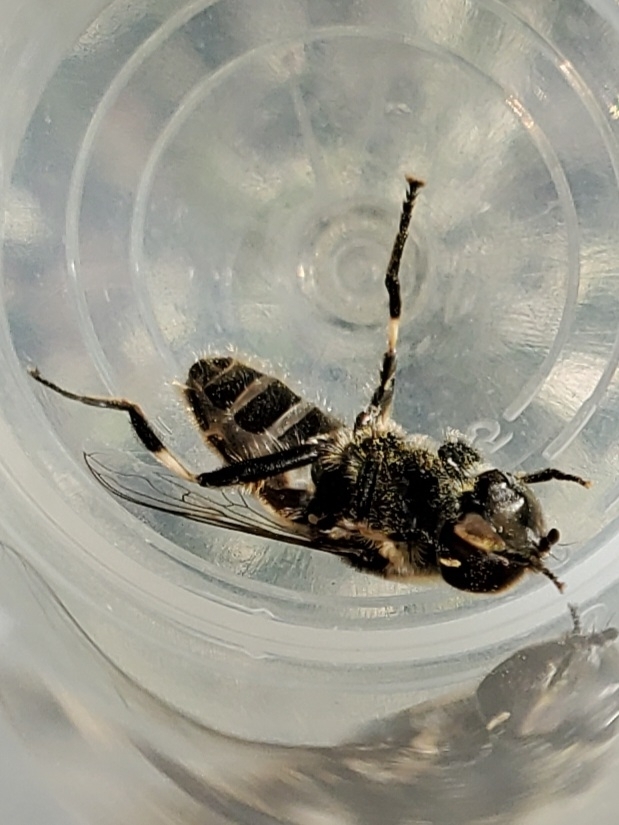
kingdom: Animalia
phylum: Arthropoda
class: Insecta
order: Diptera
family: Syrphidae
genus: Eristalis
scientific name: Eristalis dimidiata
